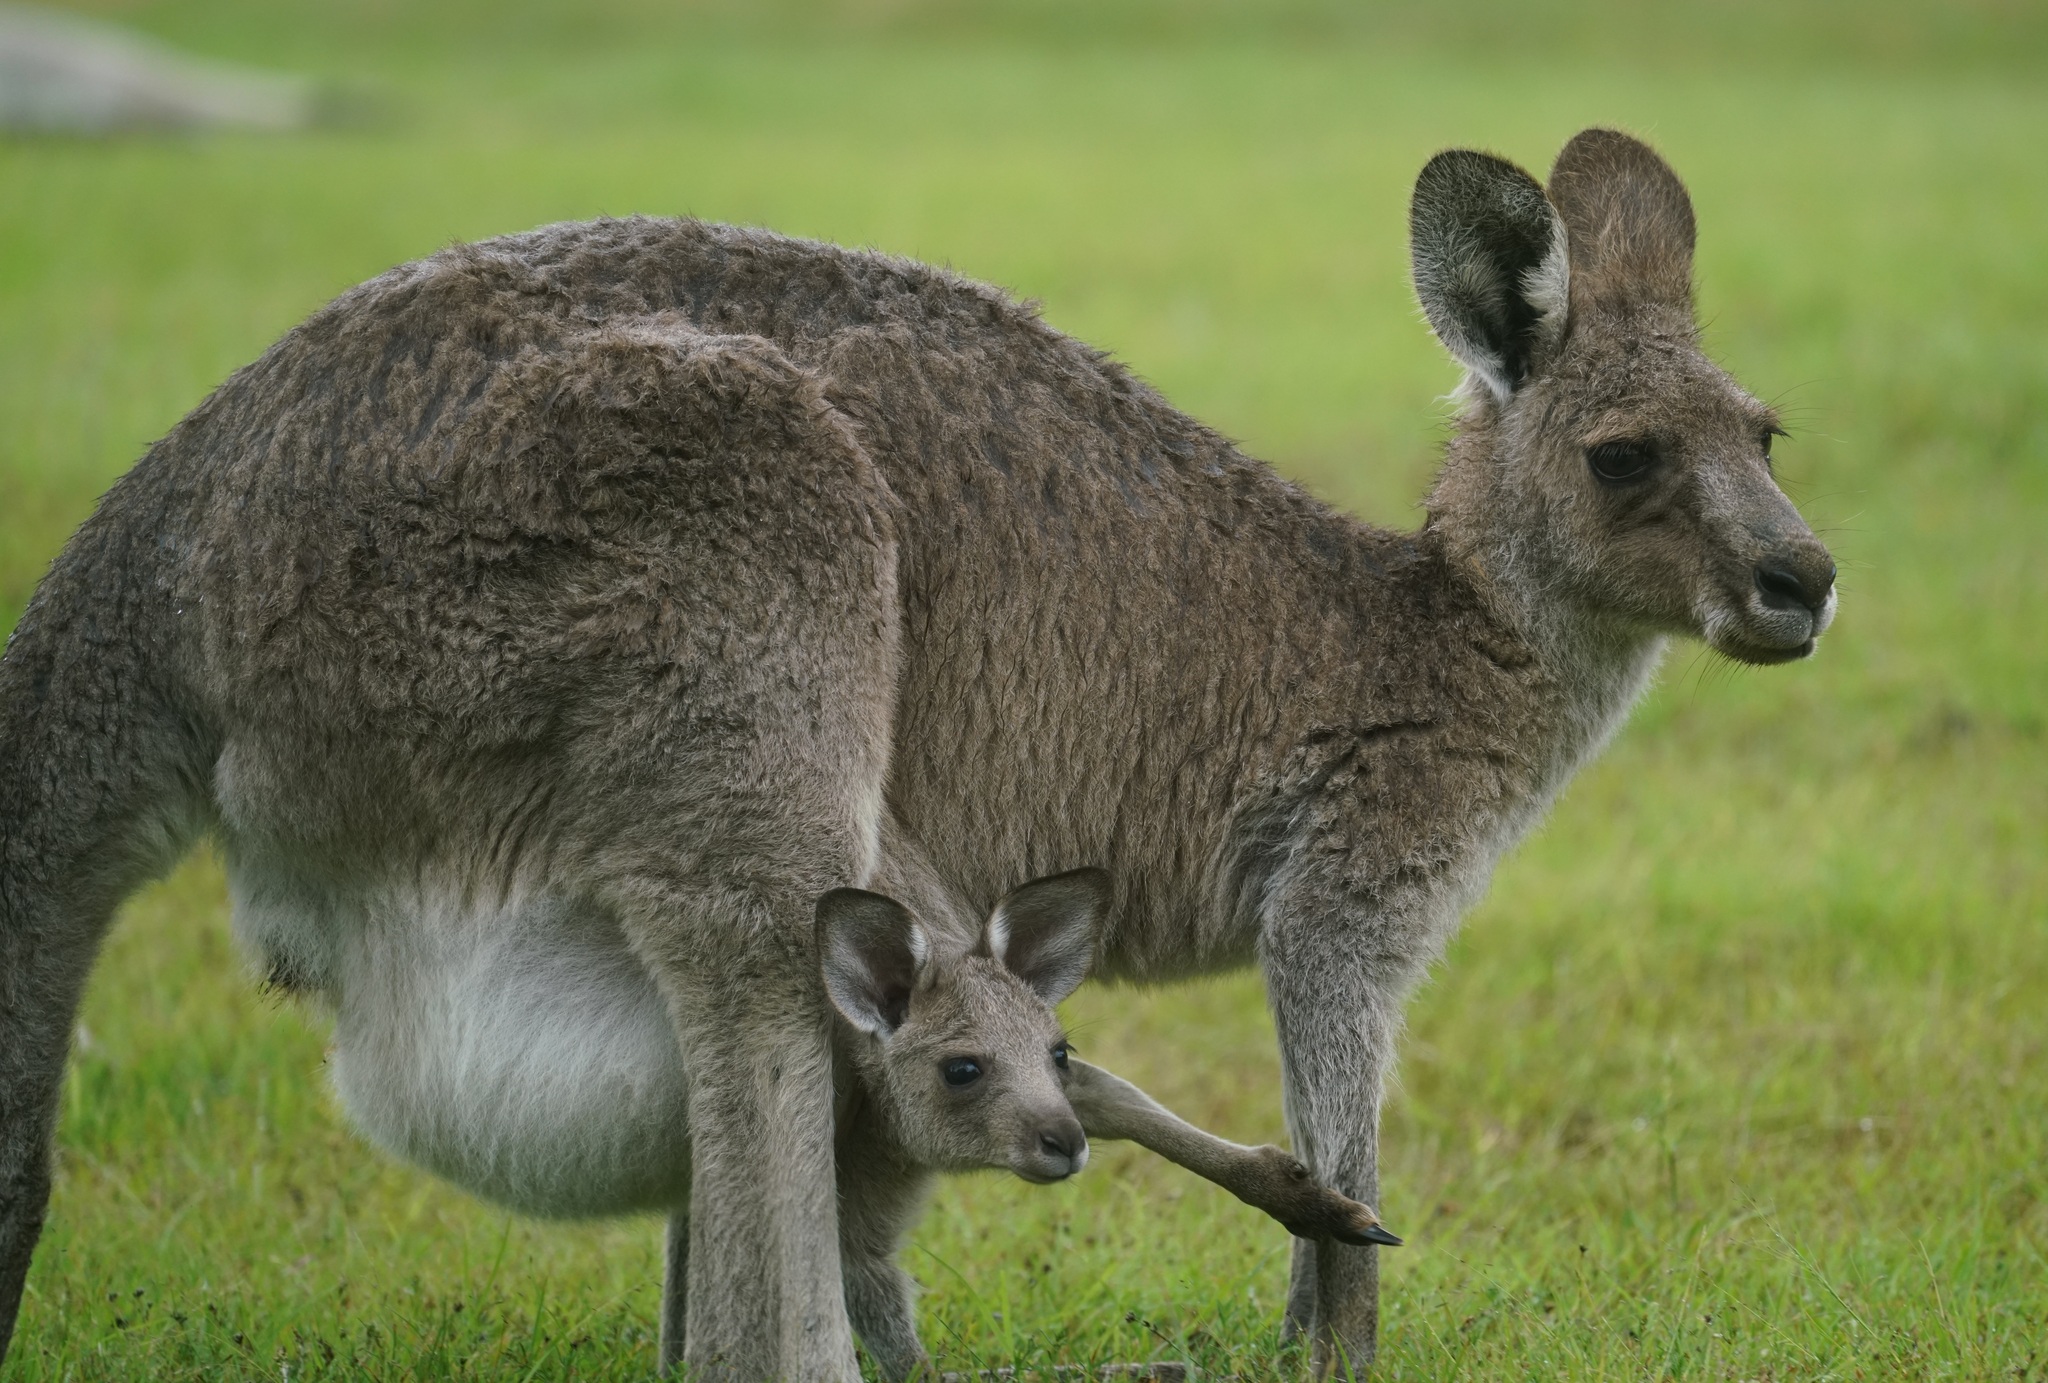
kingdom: Animalia
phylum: Chordata
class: Mammalia
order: Diprotodontia
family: Macropodidae
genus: Macropus
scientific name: Macropus giganteus
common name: Eastern grey kangaroo
